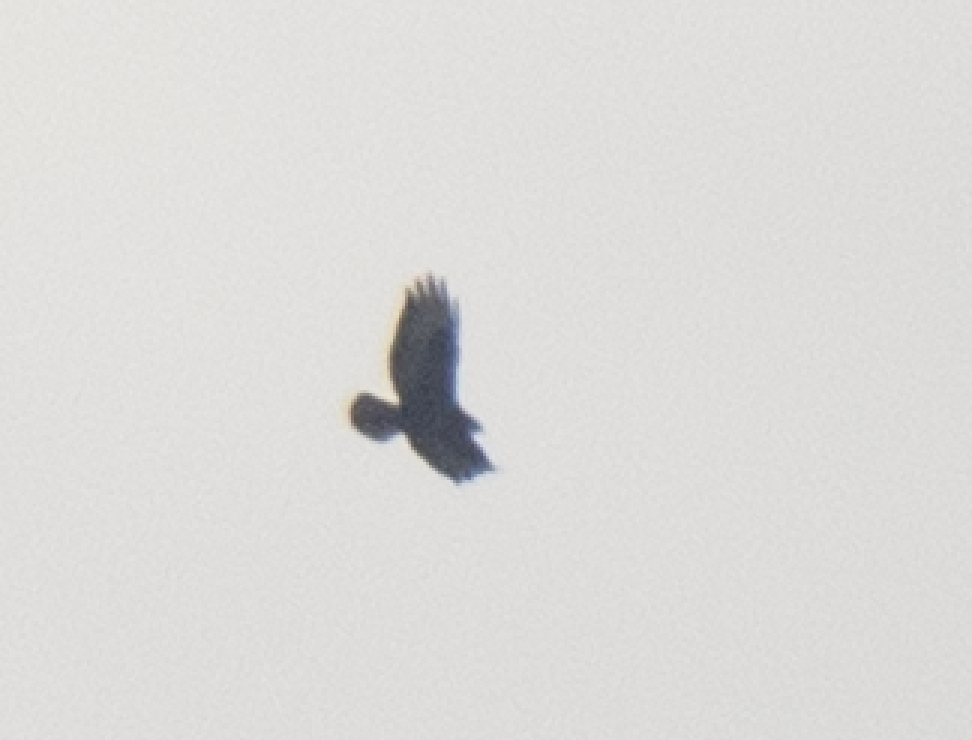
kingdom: Animalia
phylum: Chordata
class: Aves
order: Accipitriformes
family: Accipitridae
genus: Buteo
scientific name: Buteo buteo
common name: Common buzzard
